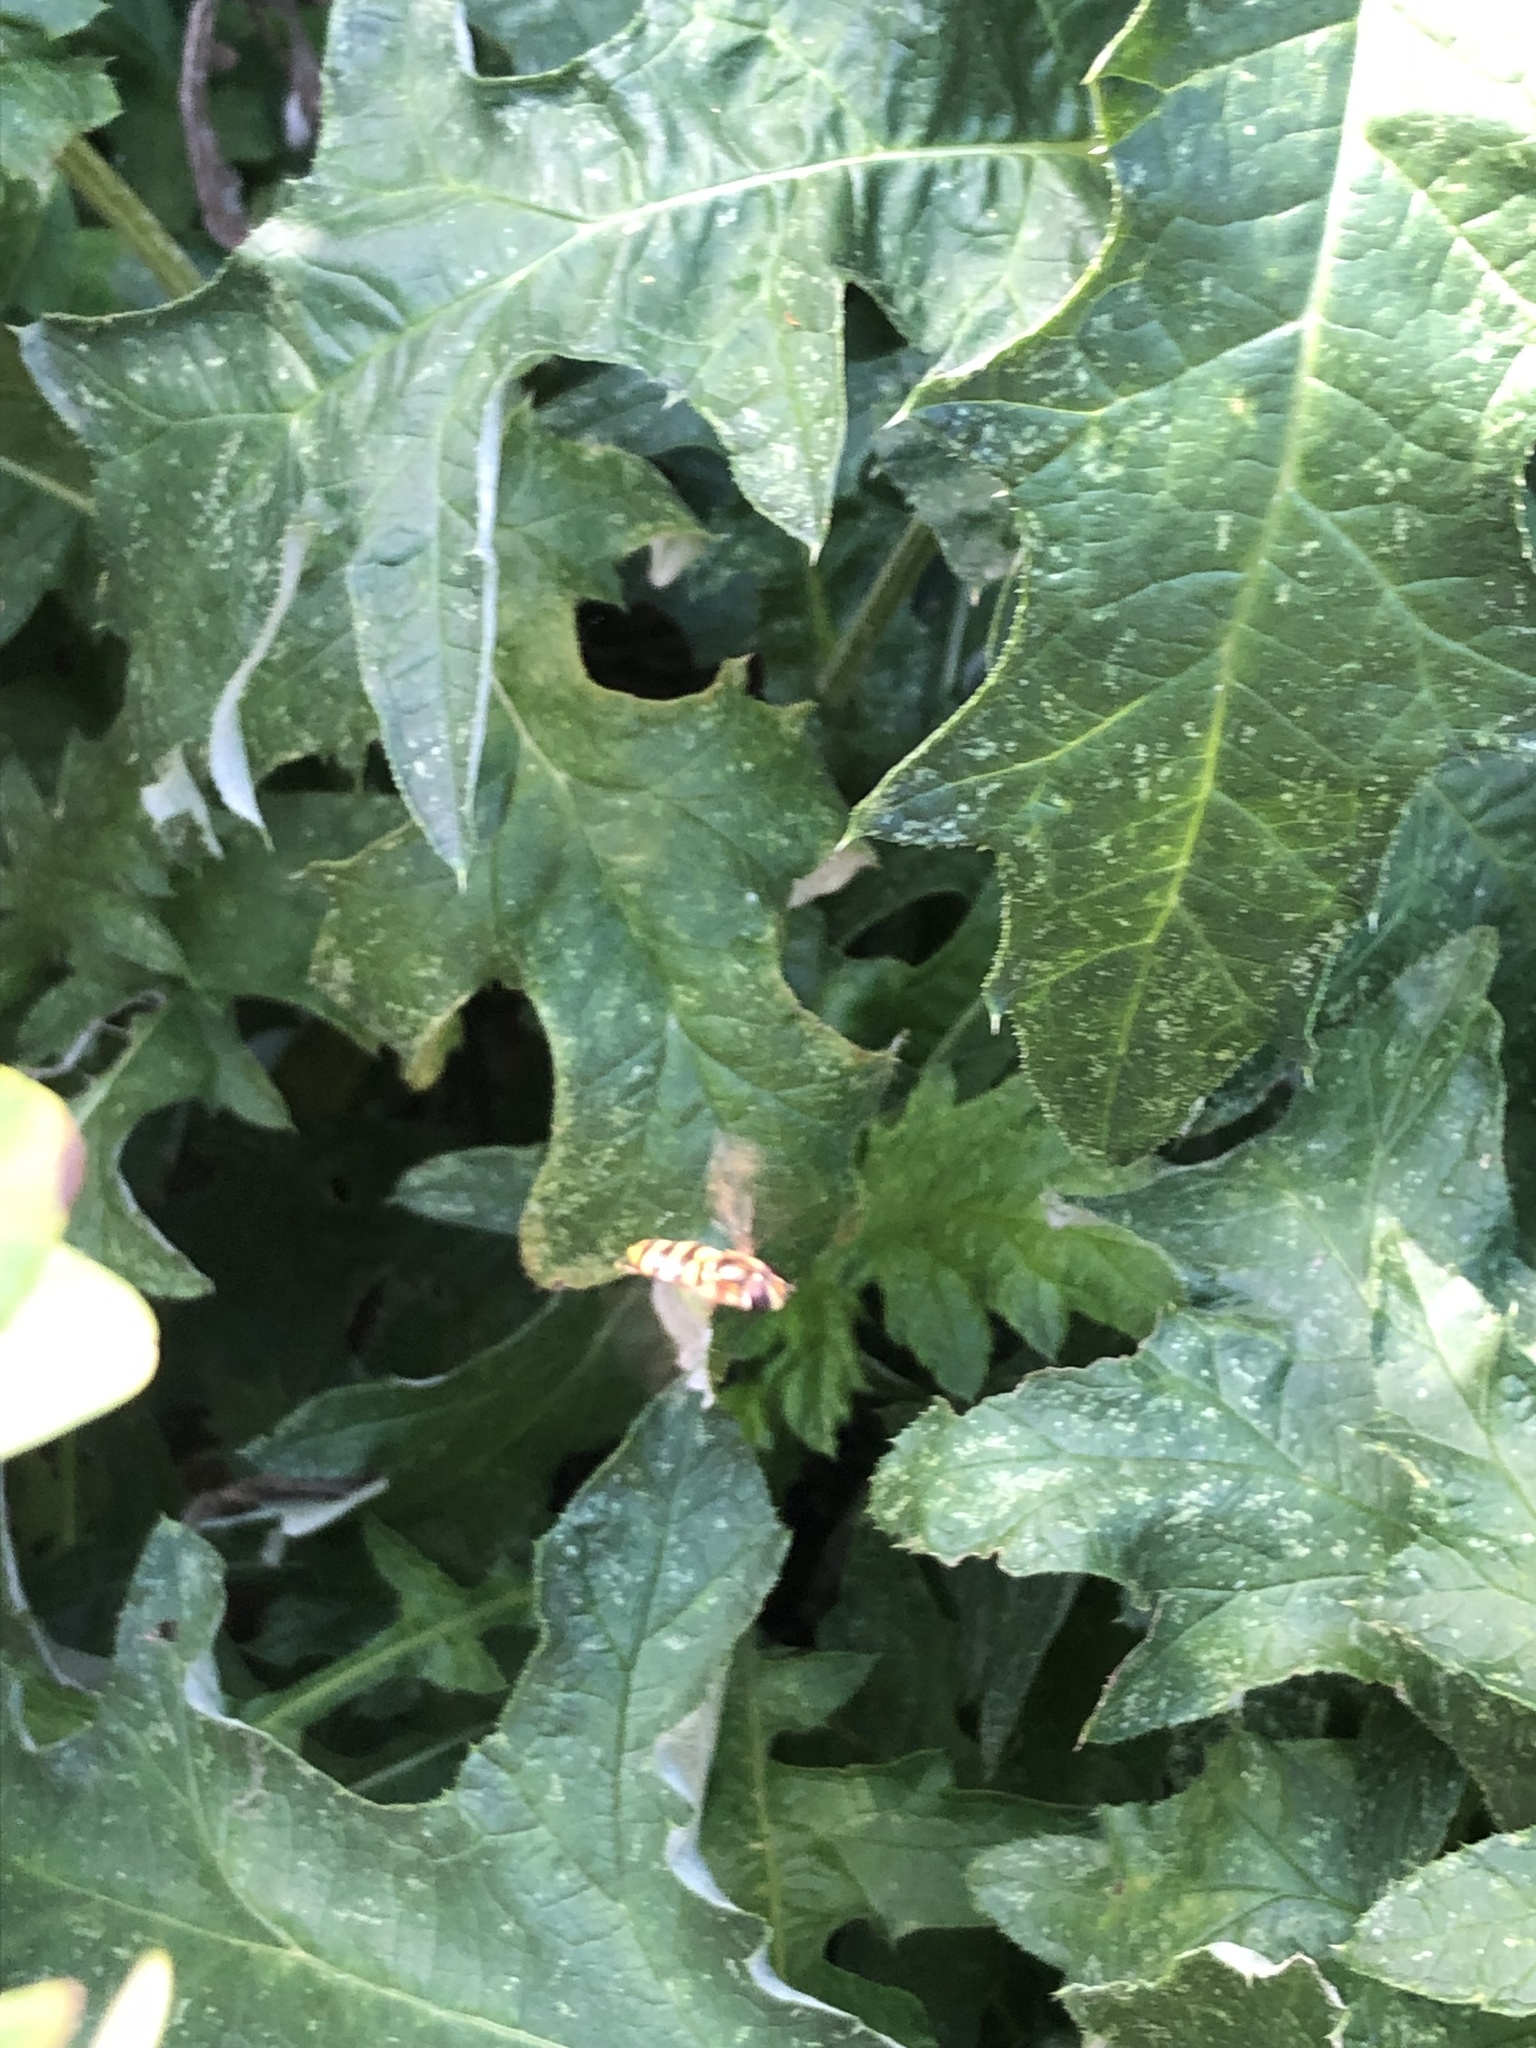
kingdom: Animalia
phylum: Arthropoda
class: Insecta
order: Diptera
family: Syrphidae
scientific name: Syrphidae
